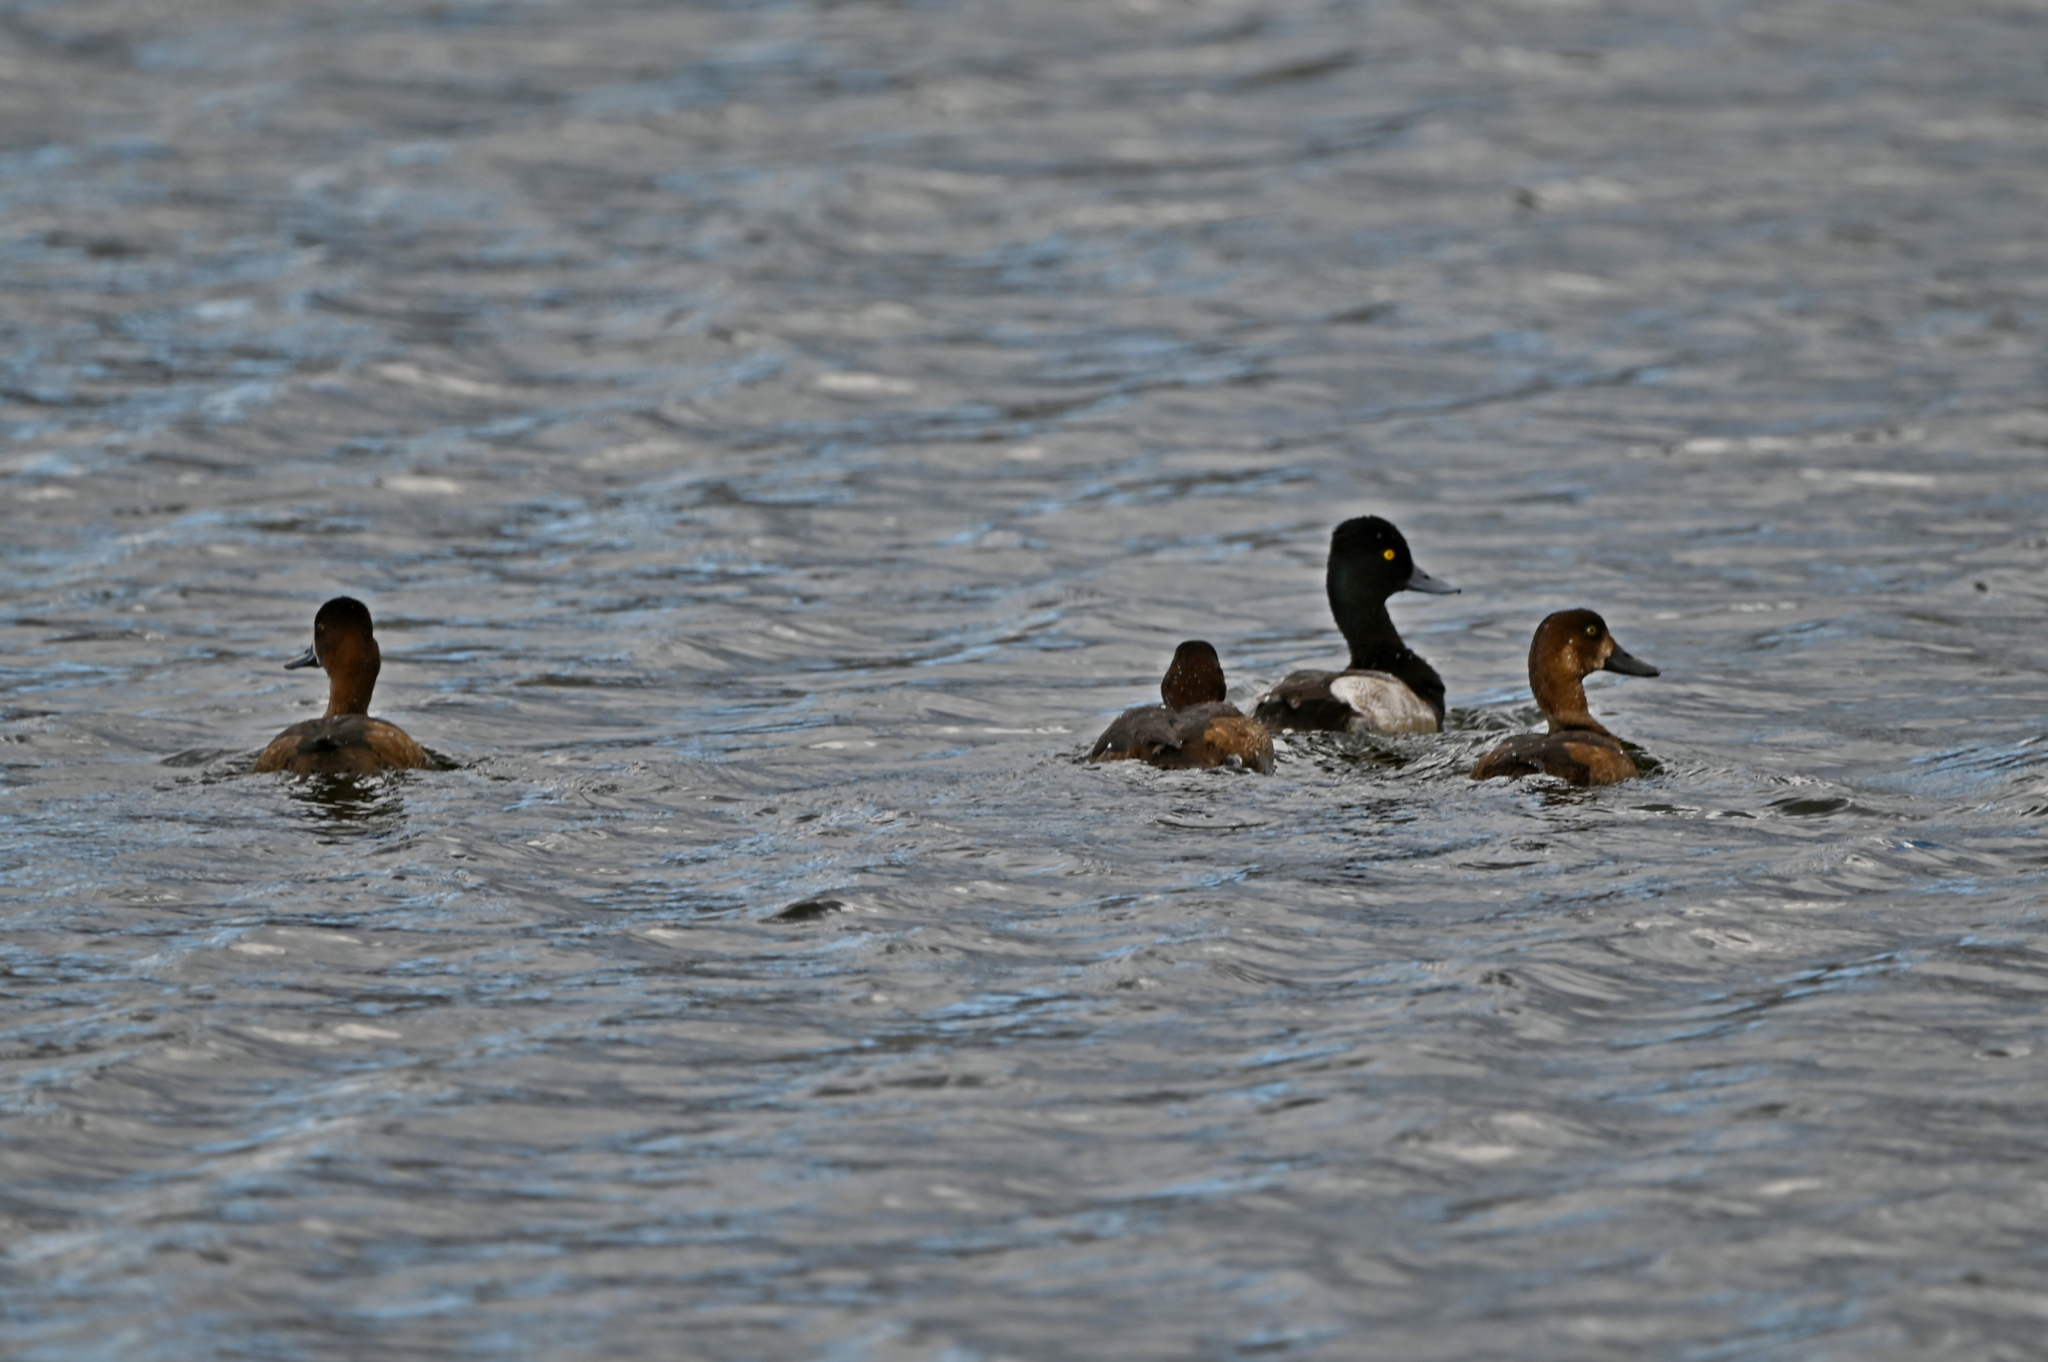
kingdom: Animalia
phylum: Chordata
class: Aves
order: Anseriformes
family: Anatidae
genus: Aythya
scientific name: Aythya affinis
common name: Lesser scaup
